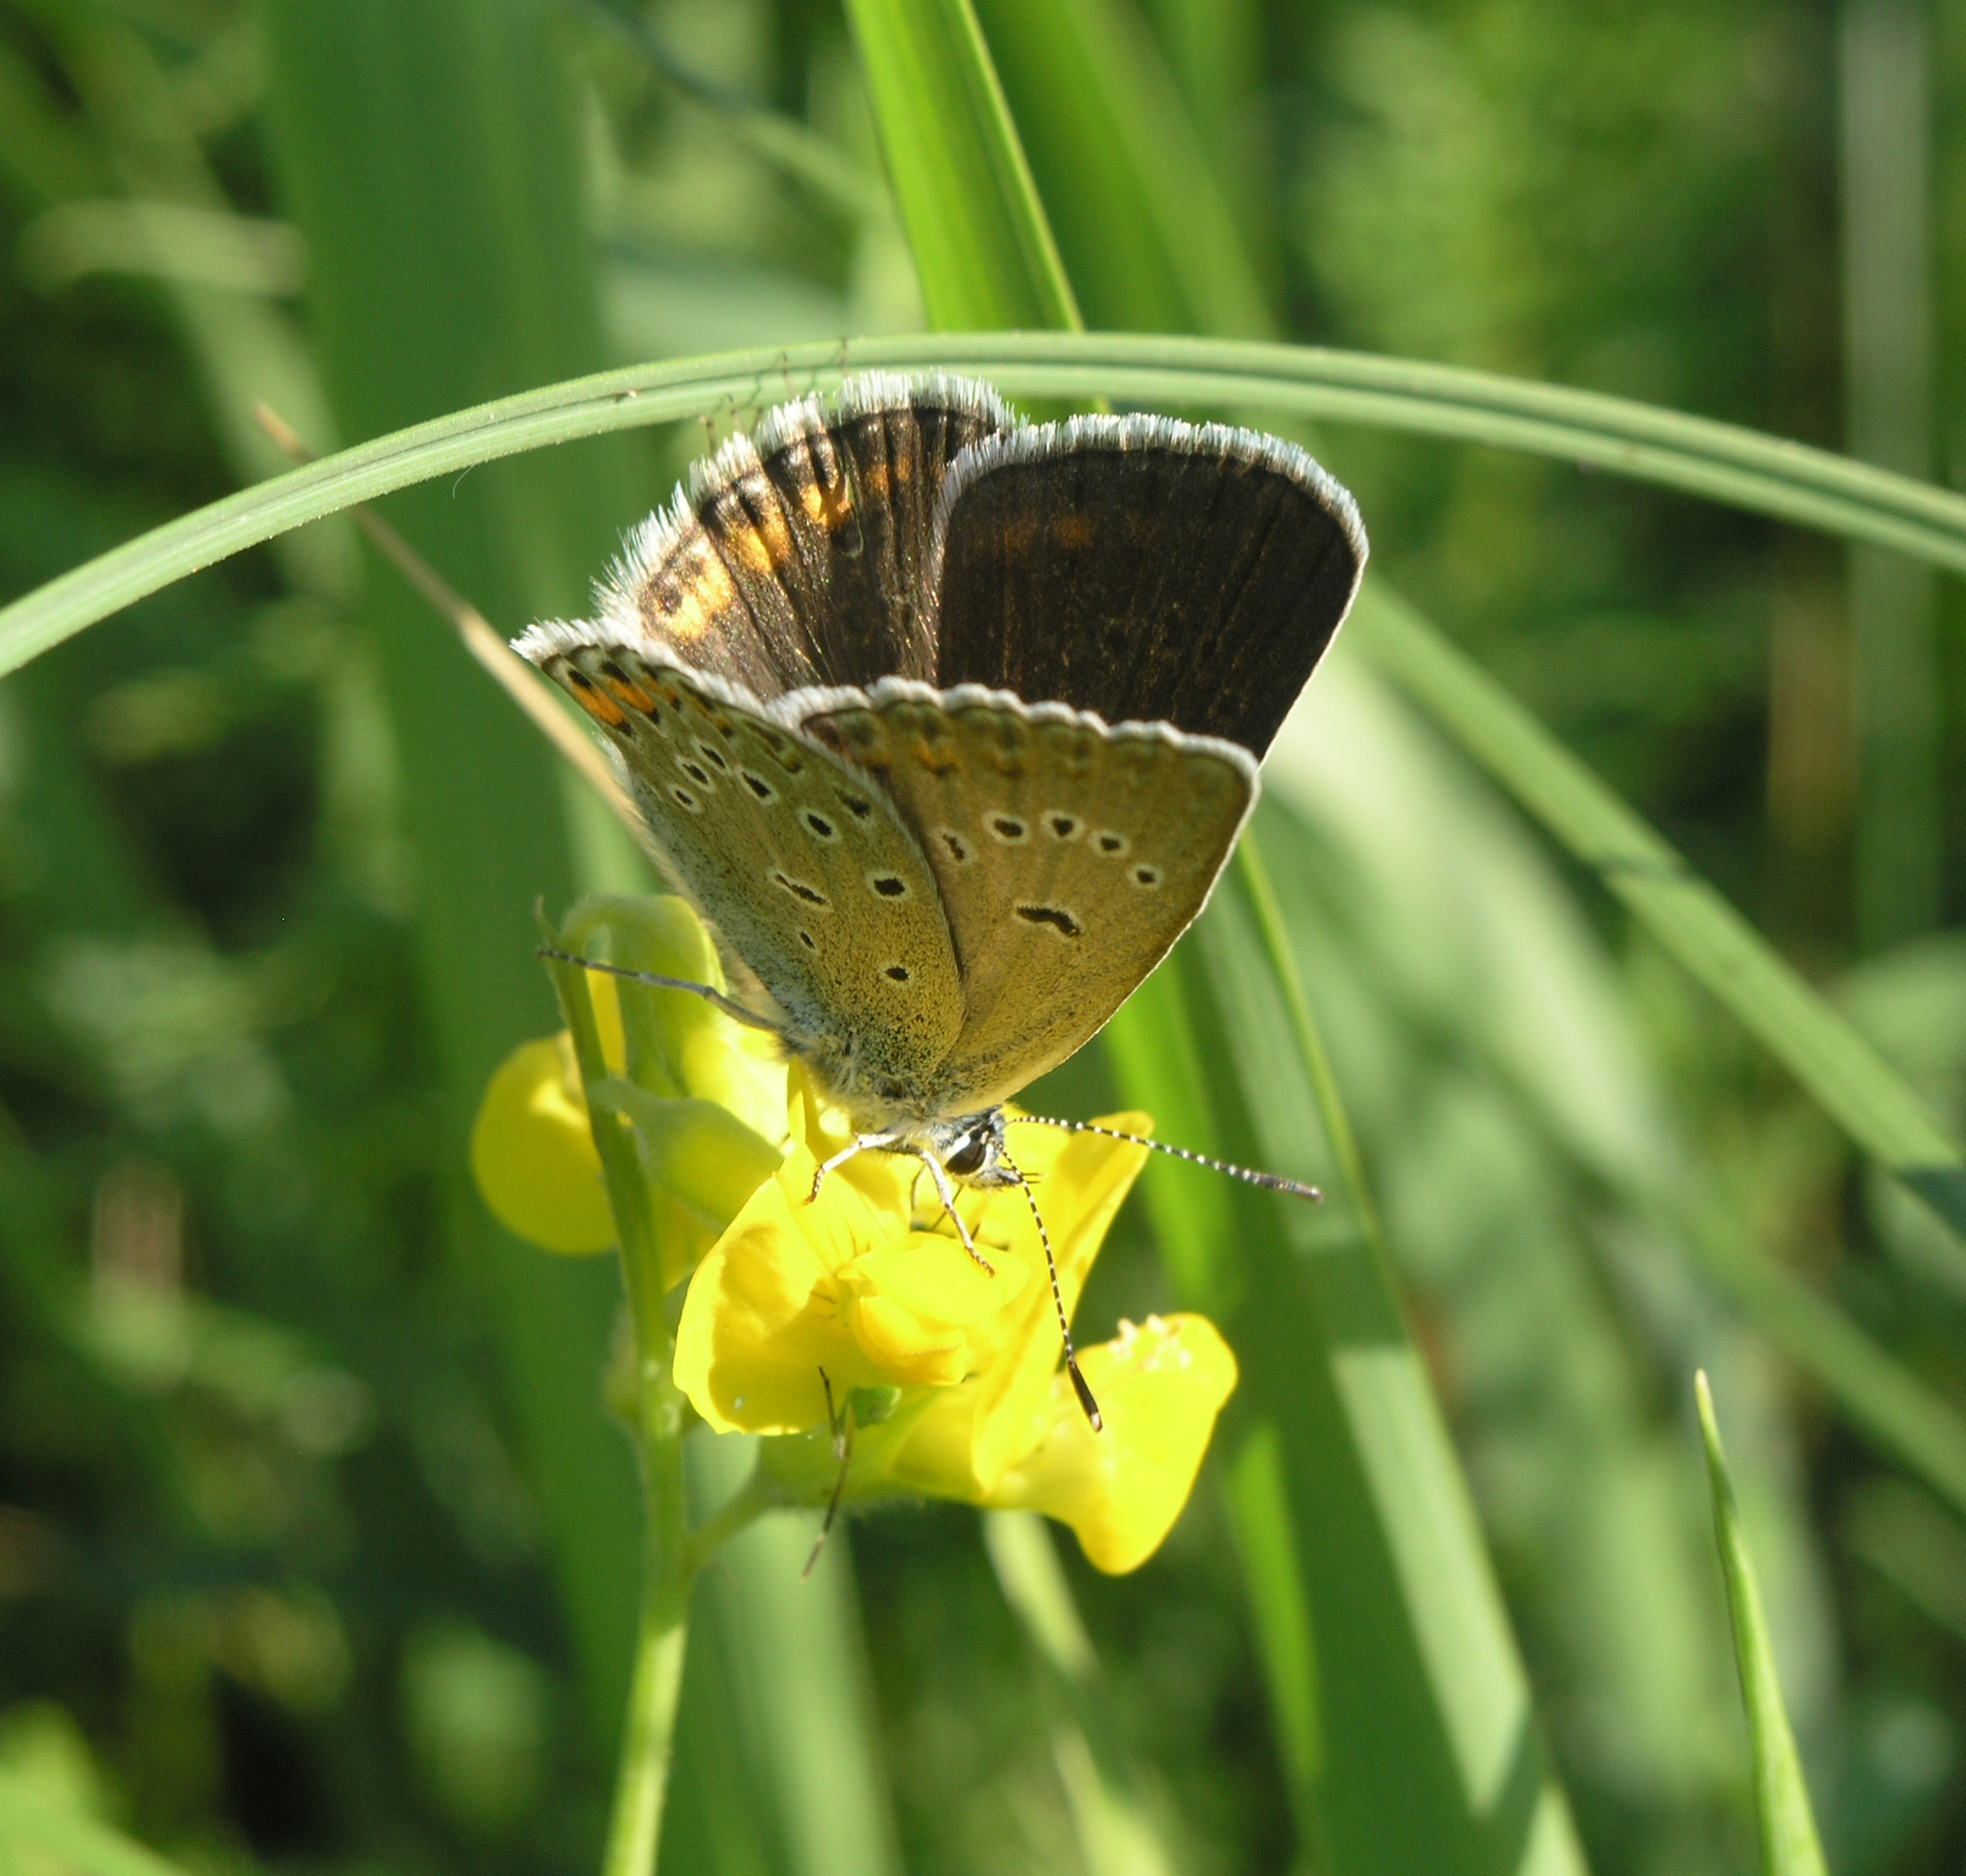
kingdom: Animalia
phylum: Arthropoda
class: Insecta
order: Lepidoptera
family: Lycaenidae
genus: Plebejus
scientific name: Plebejus amanda
